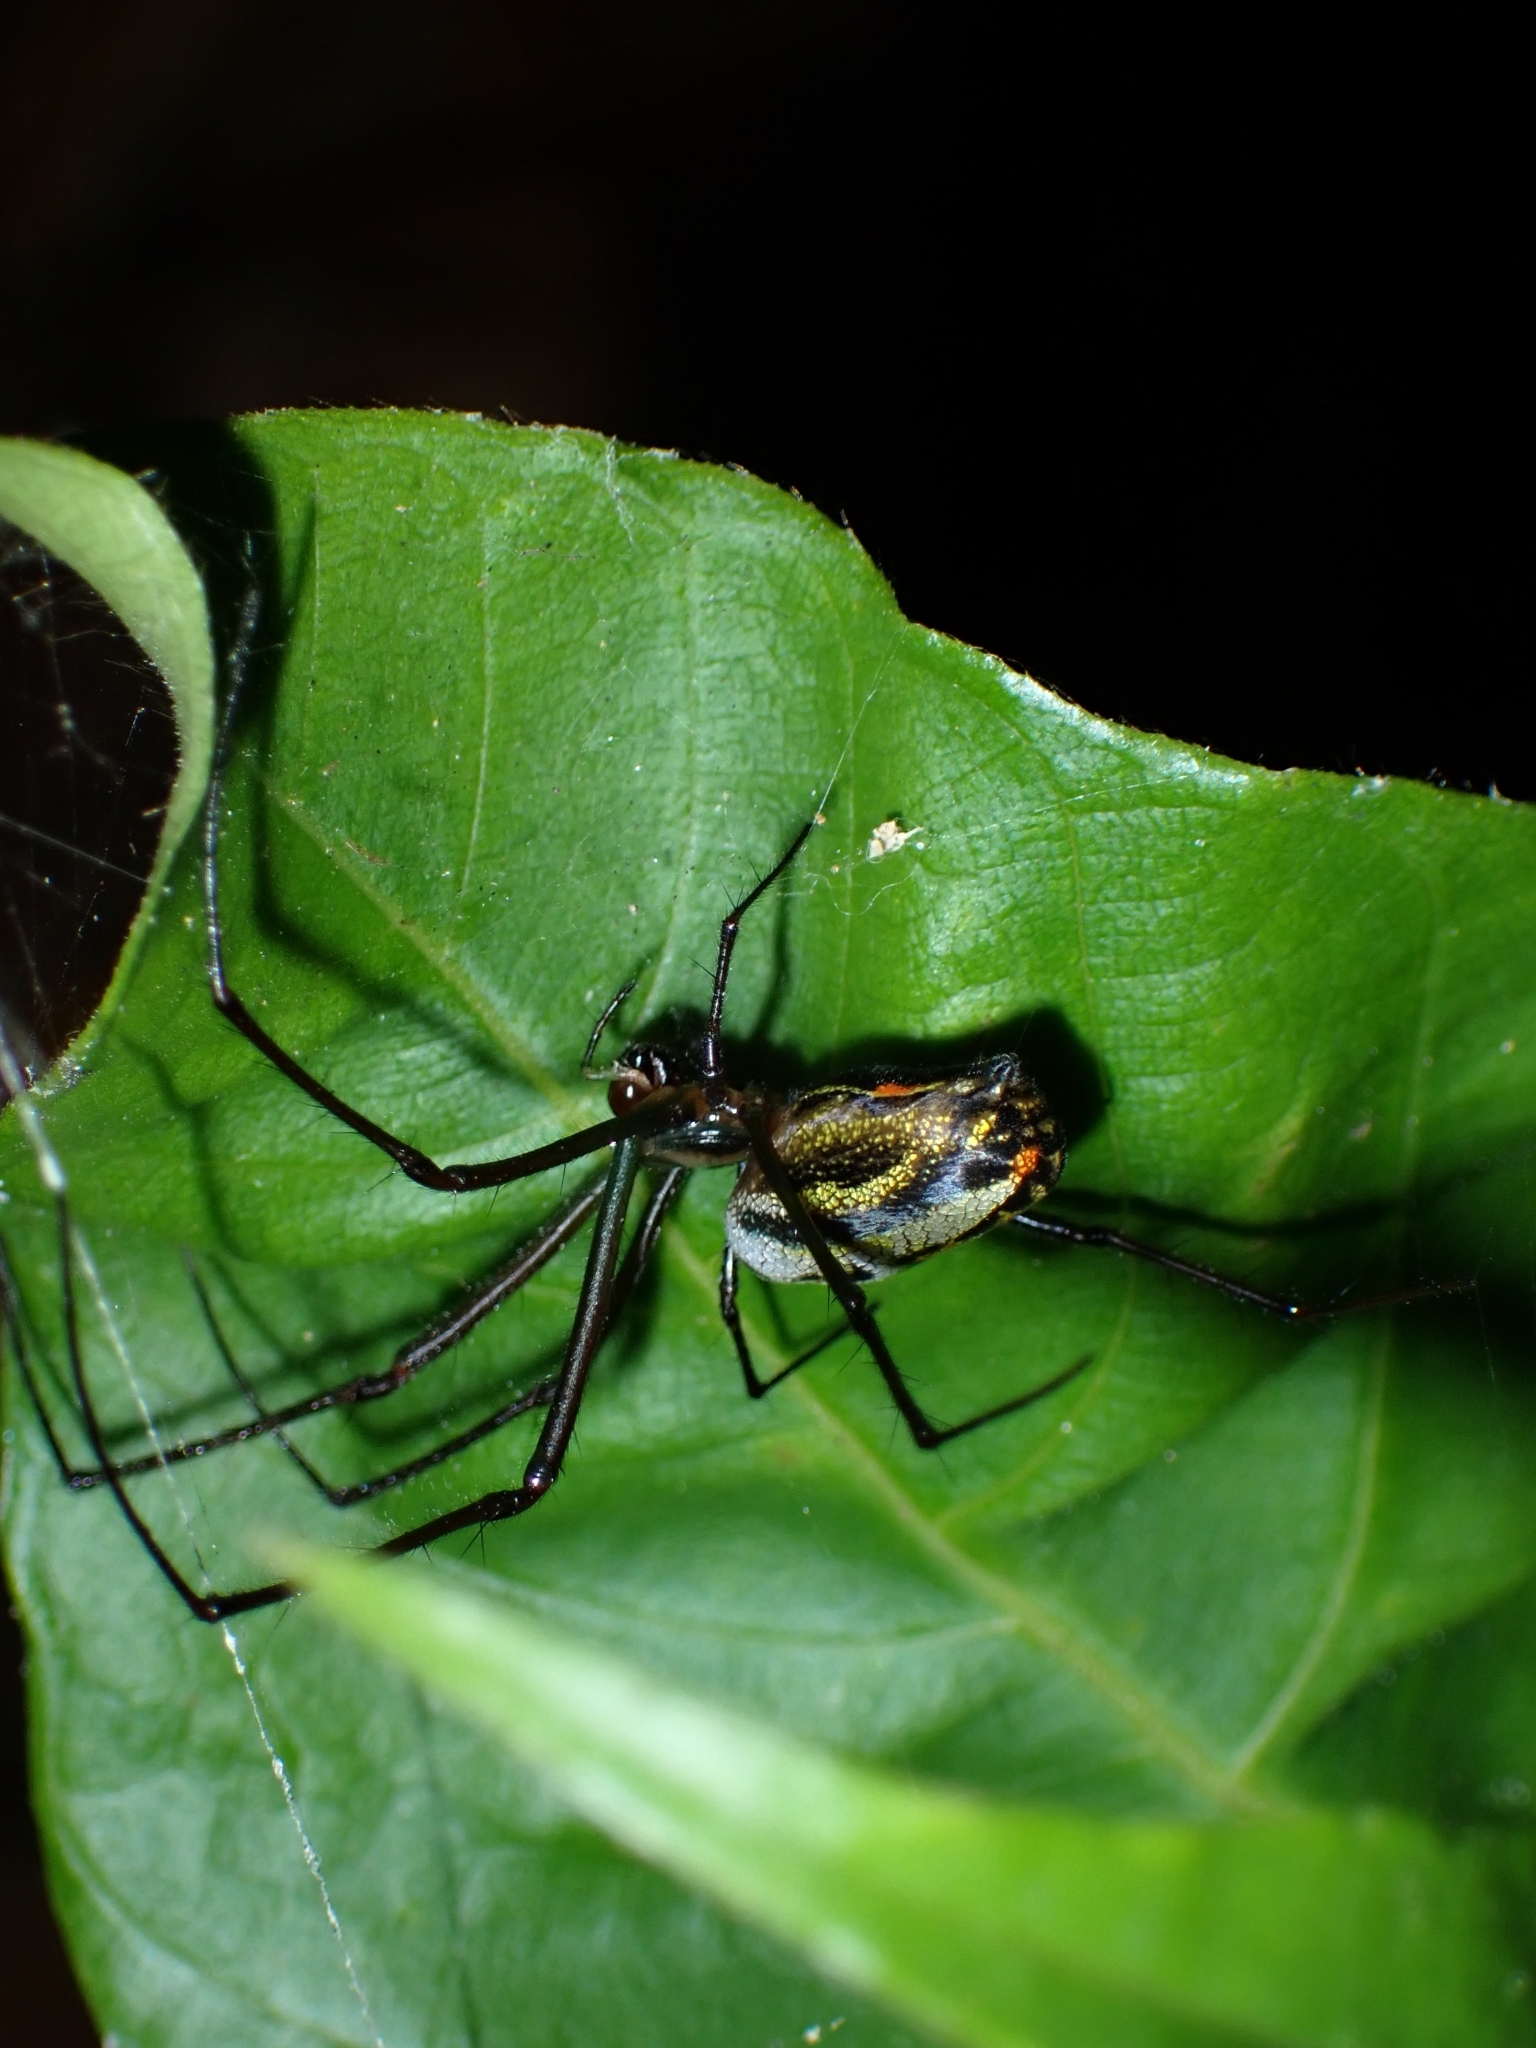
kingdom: Animalia
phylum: Arthropoda
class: Arachnida
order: Araneae
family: Tetragnathidae
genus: Leucauge
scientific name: Leucauge hebridisiana
